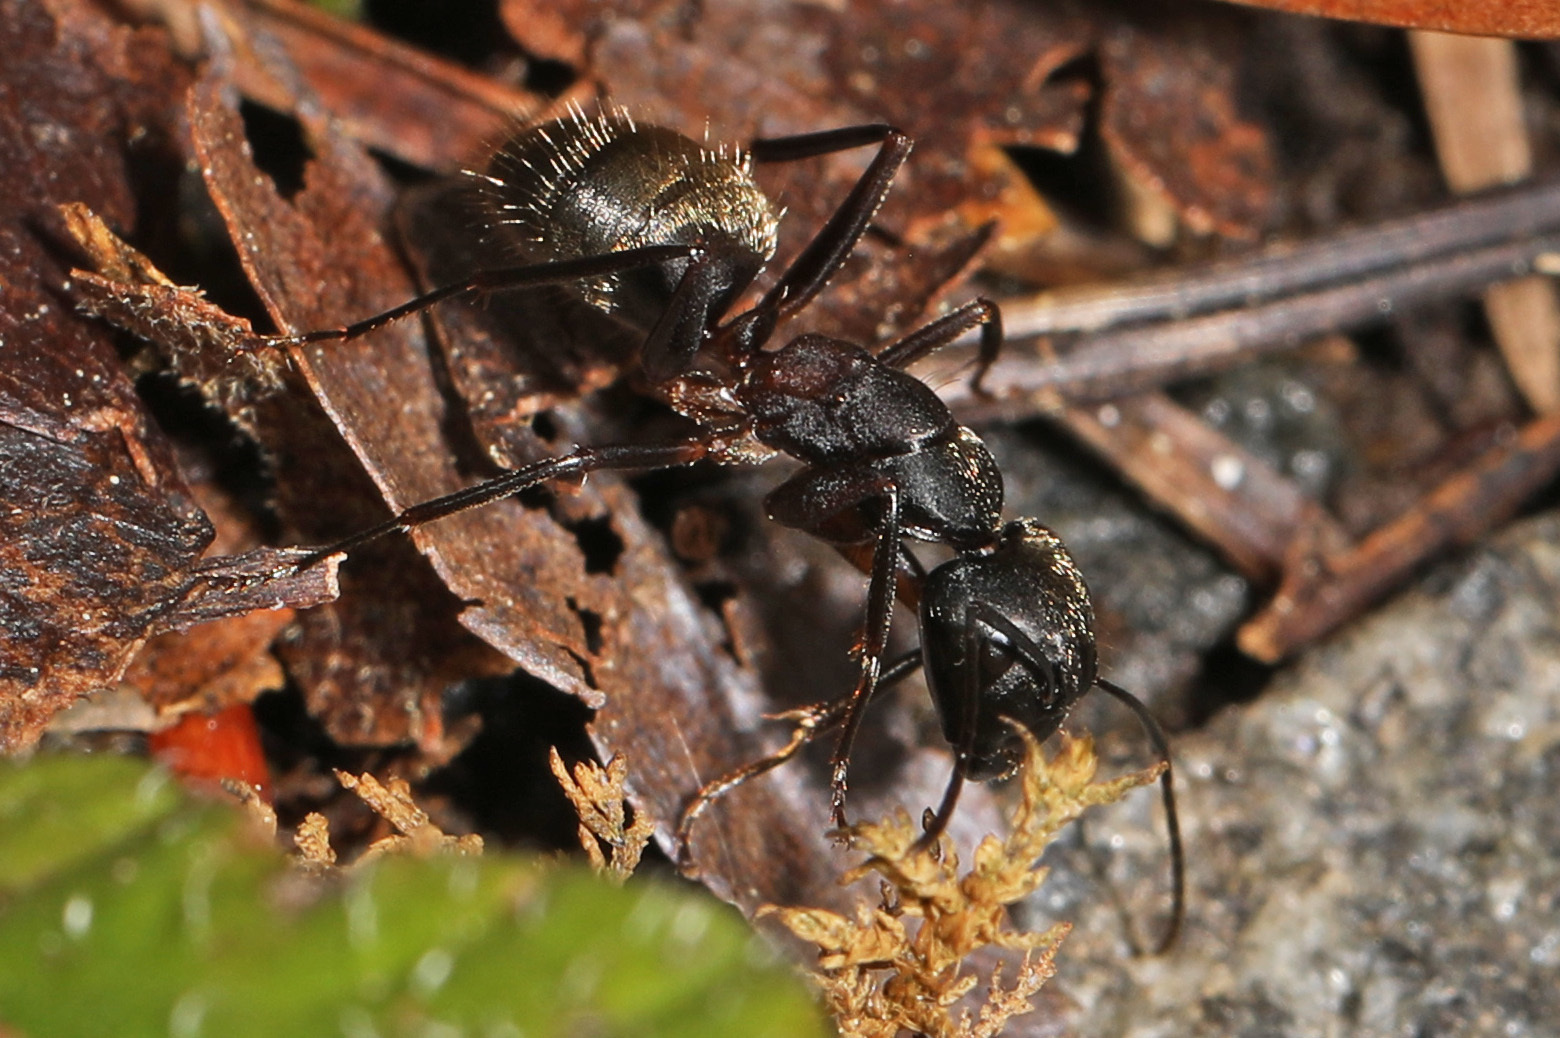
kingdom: Animalia
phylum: Arthropoda
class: Insecta
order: Hymenoptera
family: Formicidae
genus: Camponotus
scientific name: Camponotus chromaiodes
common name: Red carpenter ant
